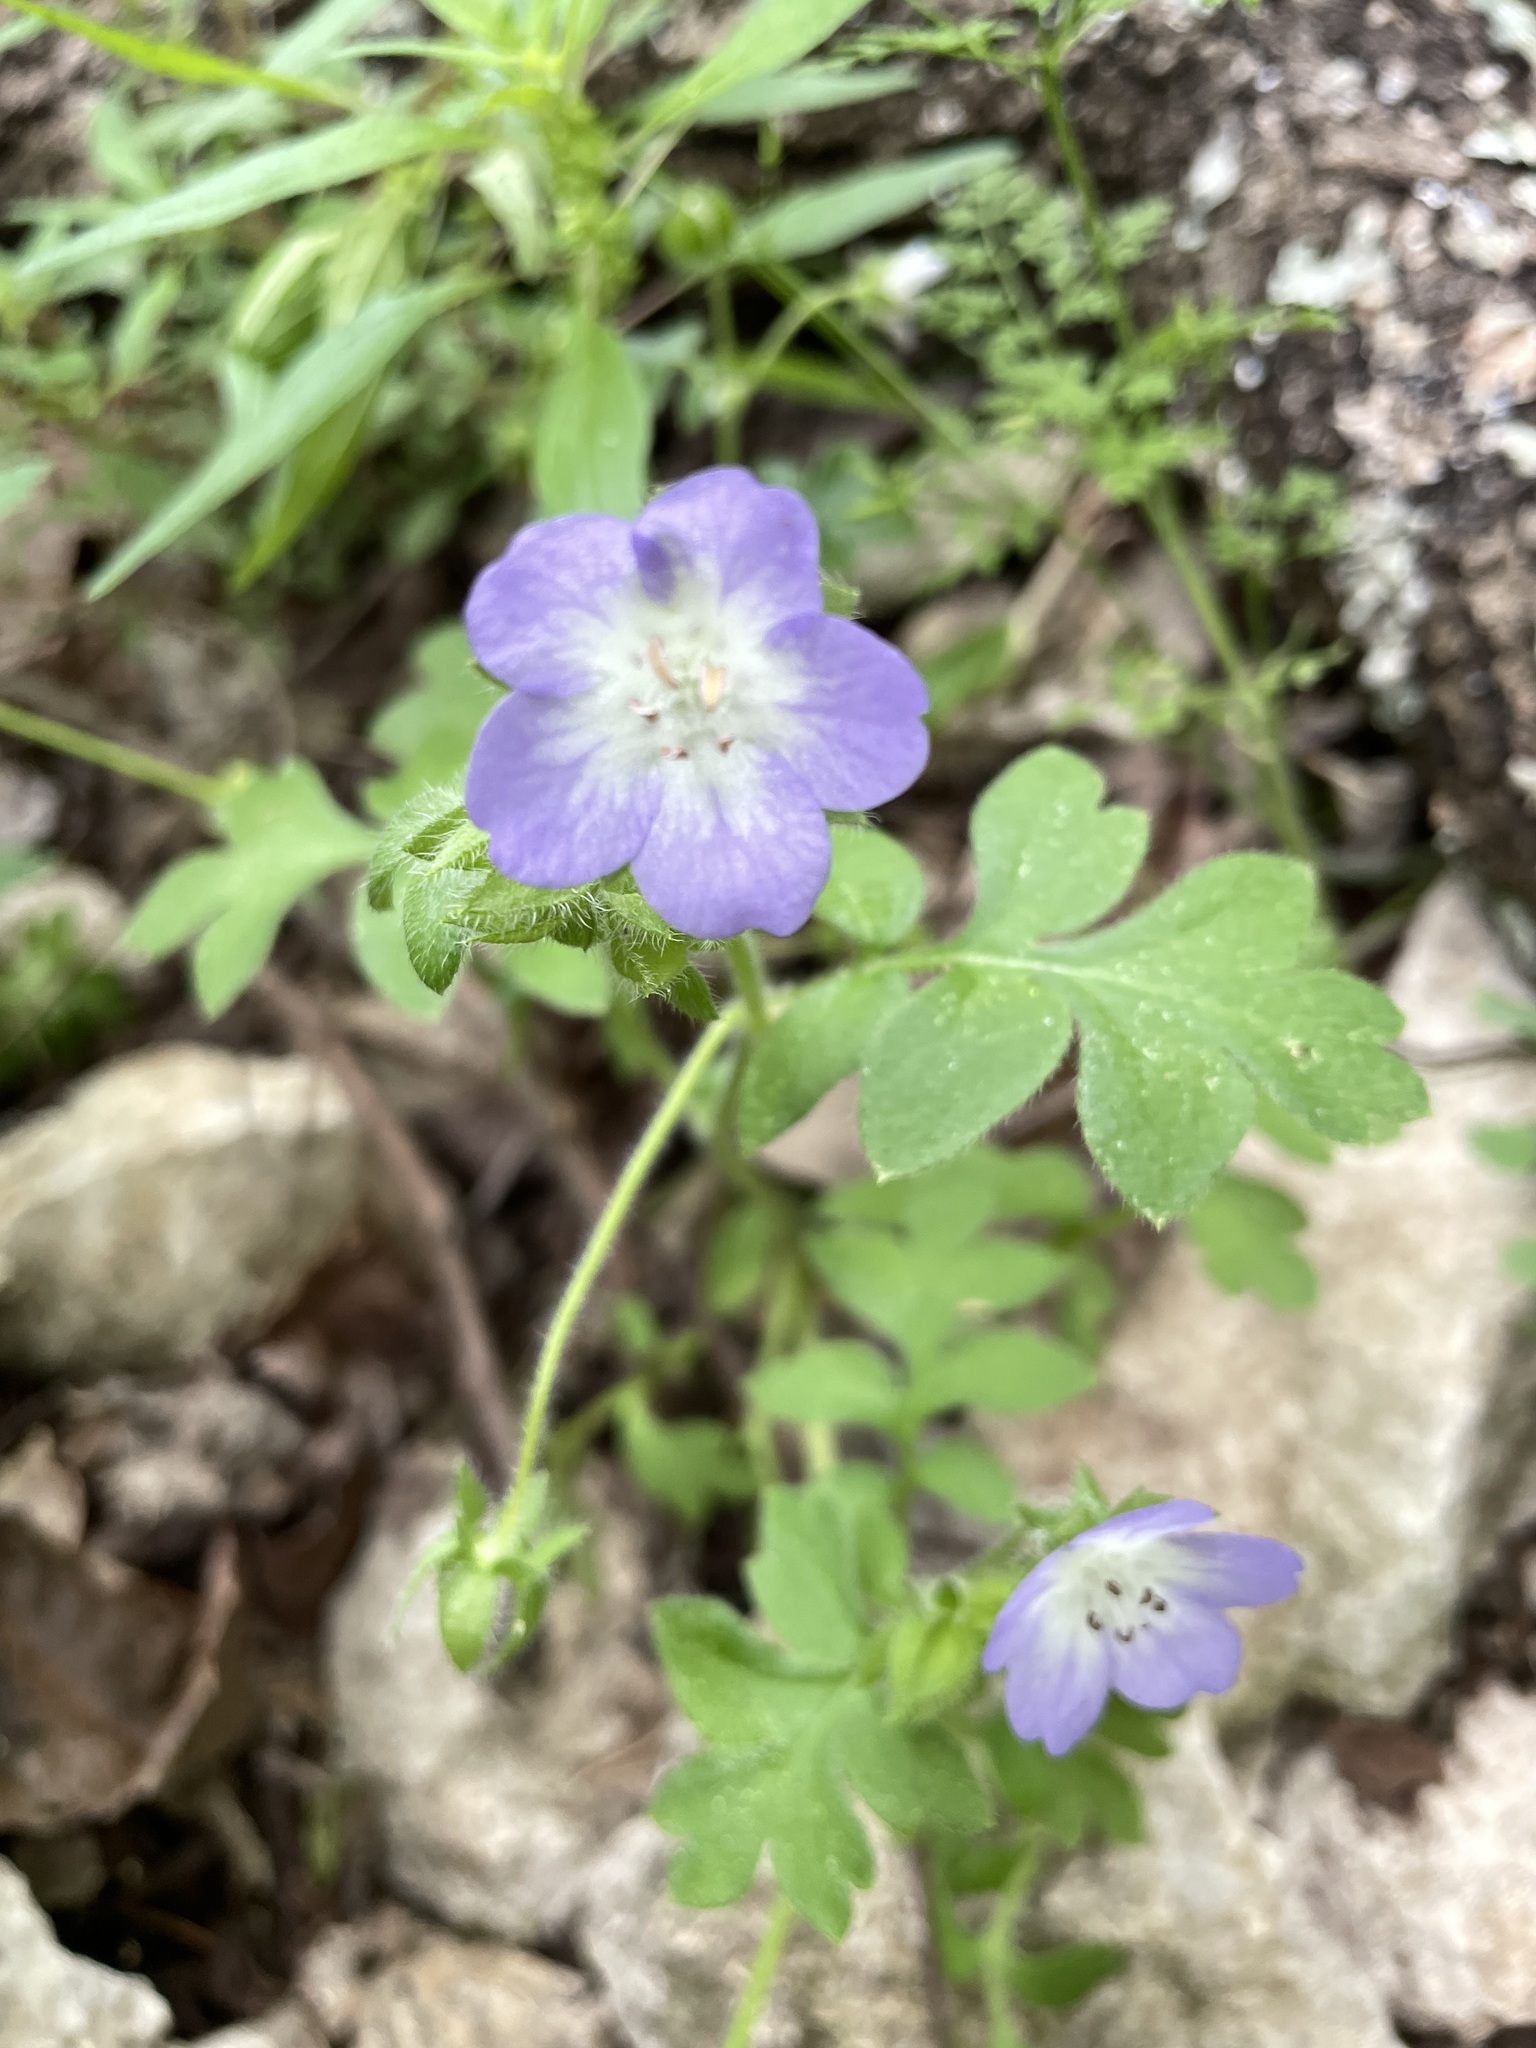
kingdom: Plantae
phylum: Tracheophyta
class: Magnoliopsida
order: Boraginales
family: Hydrophyllaceae
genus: Nemophila
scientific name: Nemophila phacelioides
